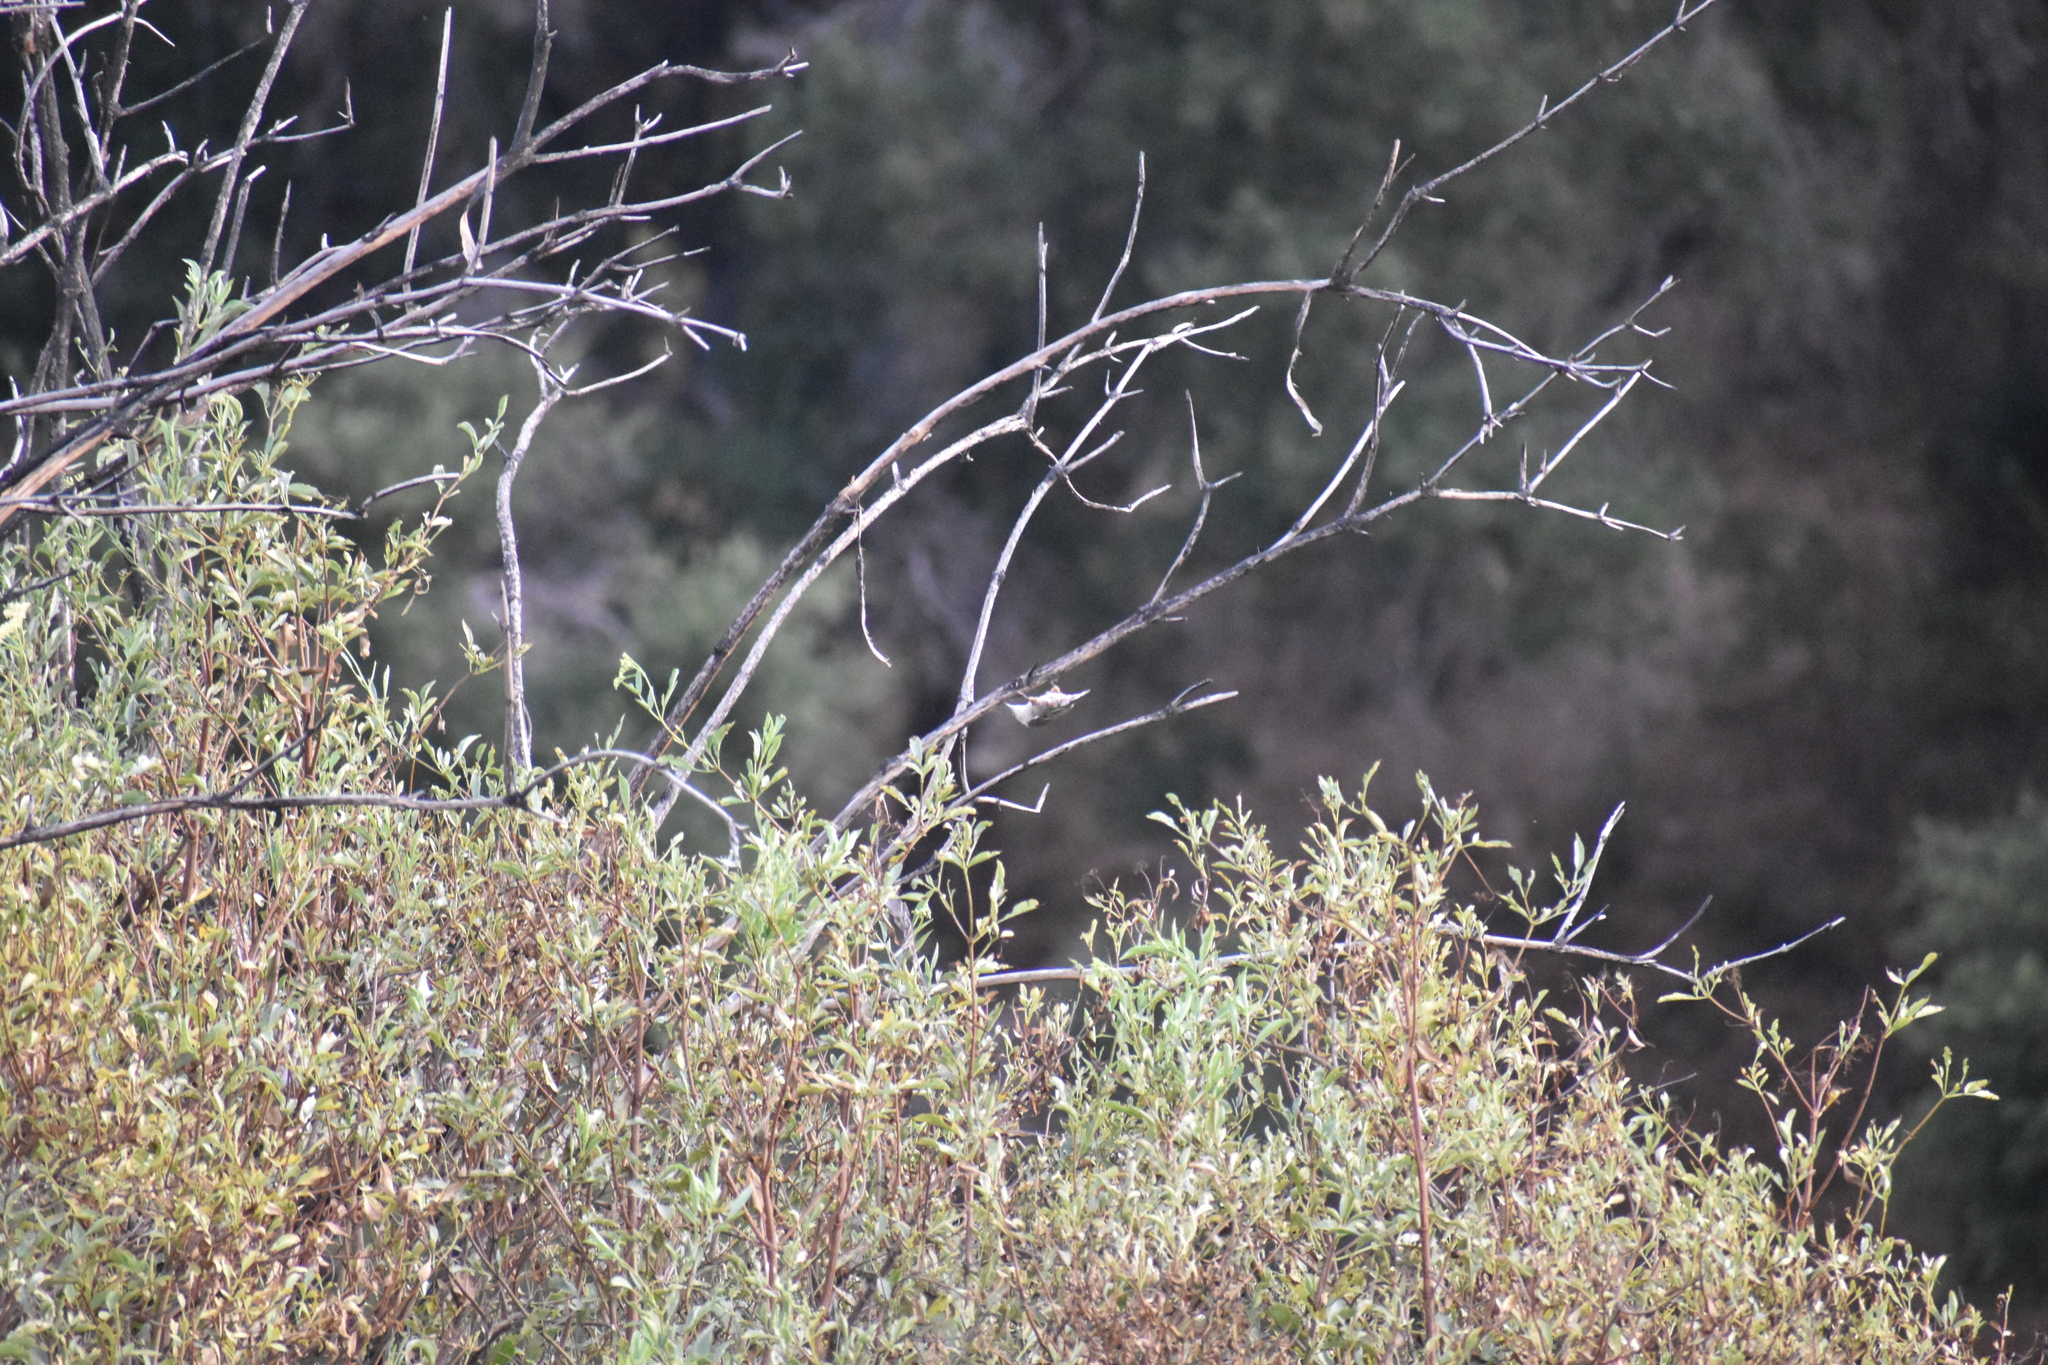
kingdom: Animalia
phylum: Chordata
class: Aves
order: Passeriformes
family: Sittidae
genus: Sitta
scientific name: Sitta carolinensis
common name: White-breasted nuthatch
